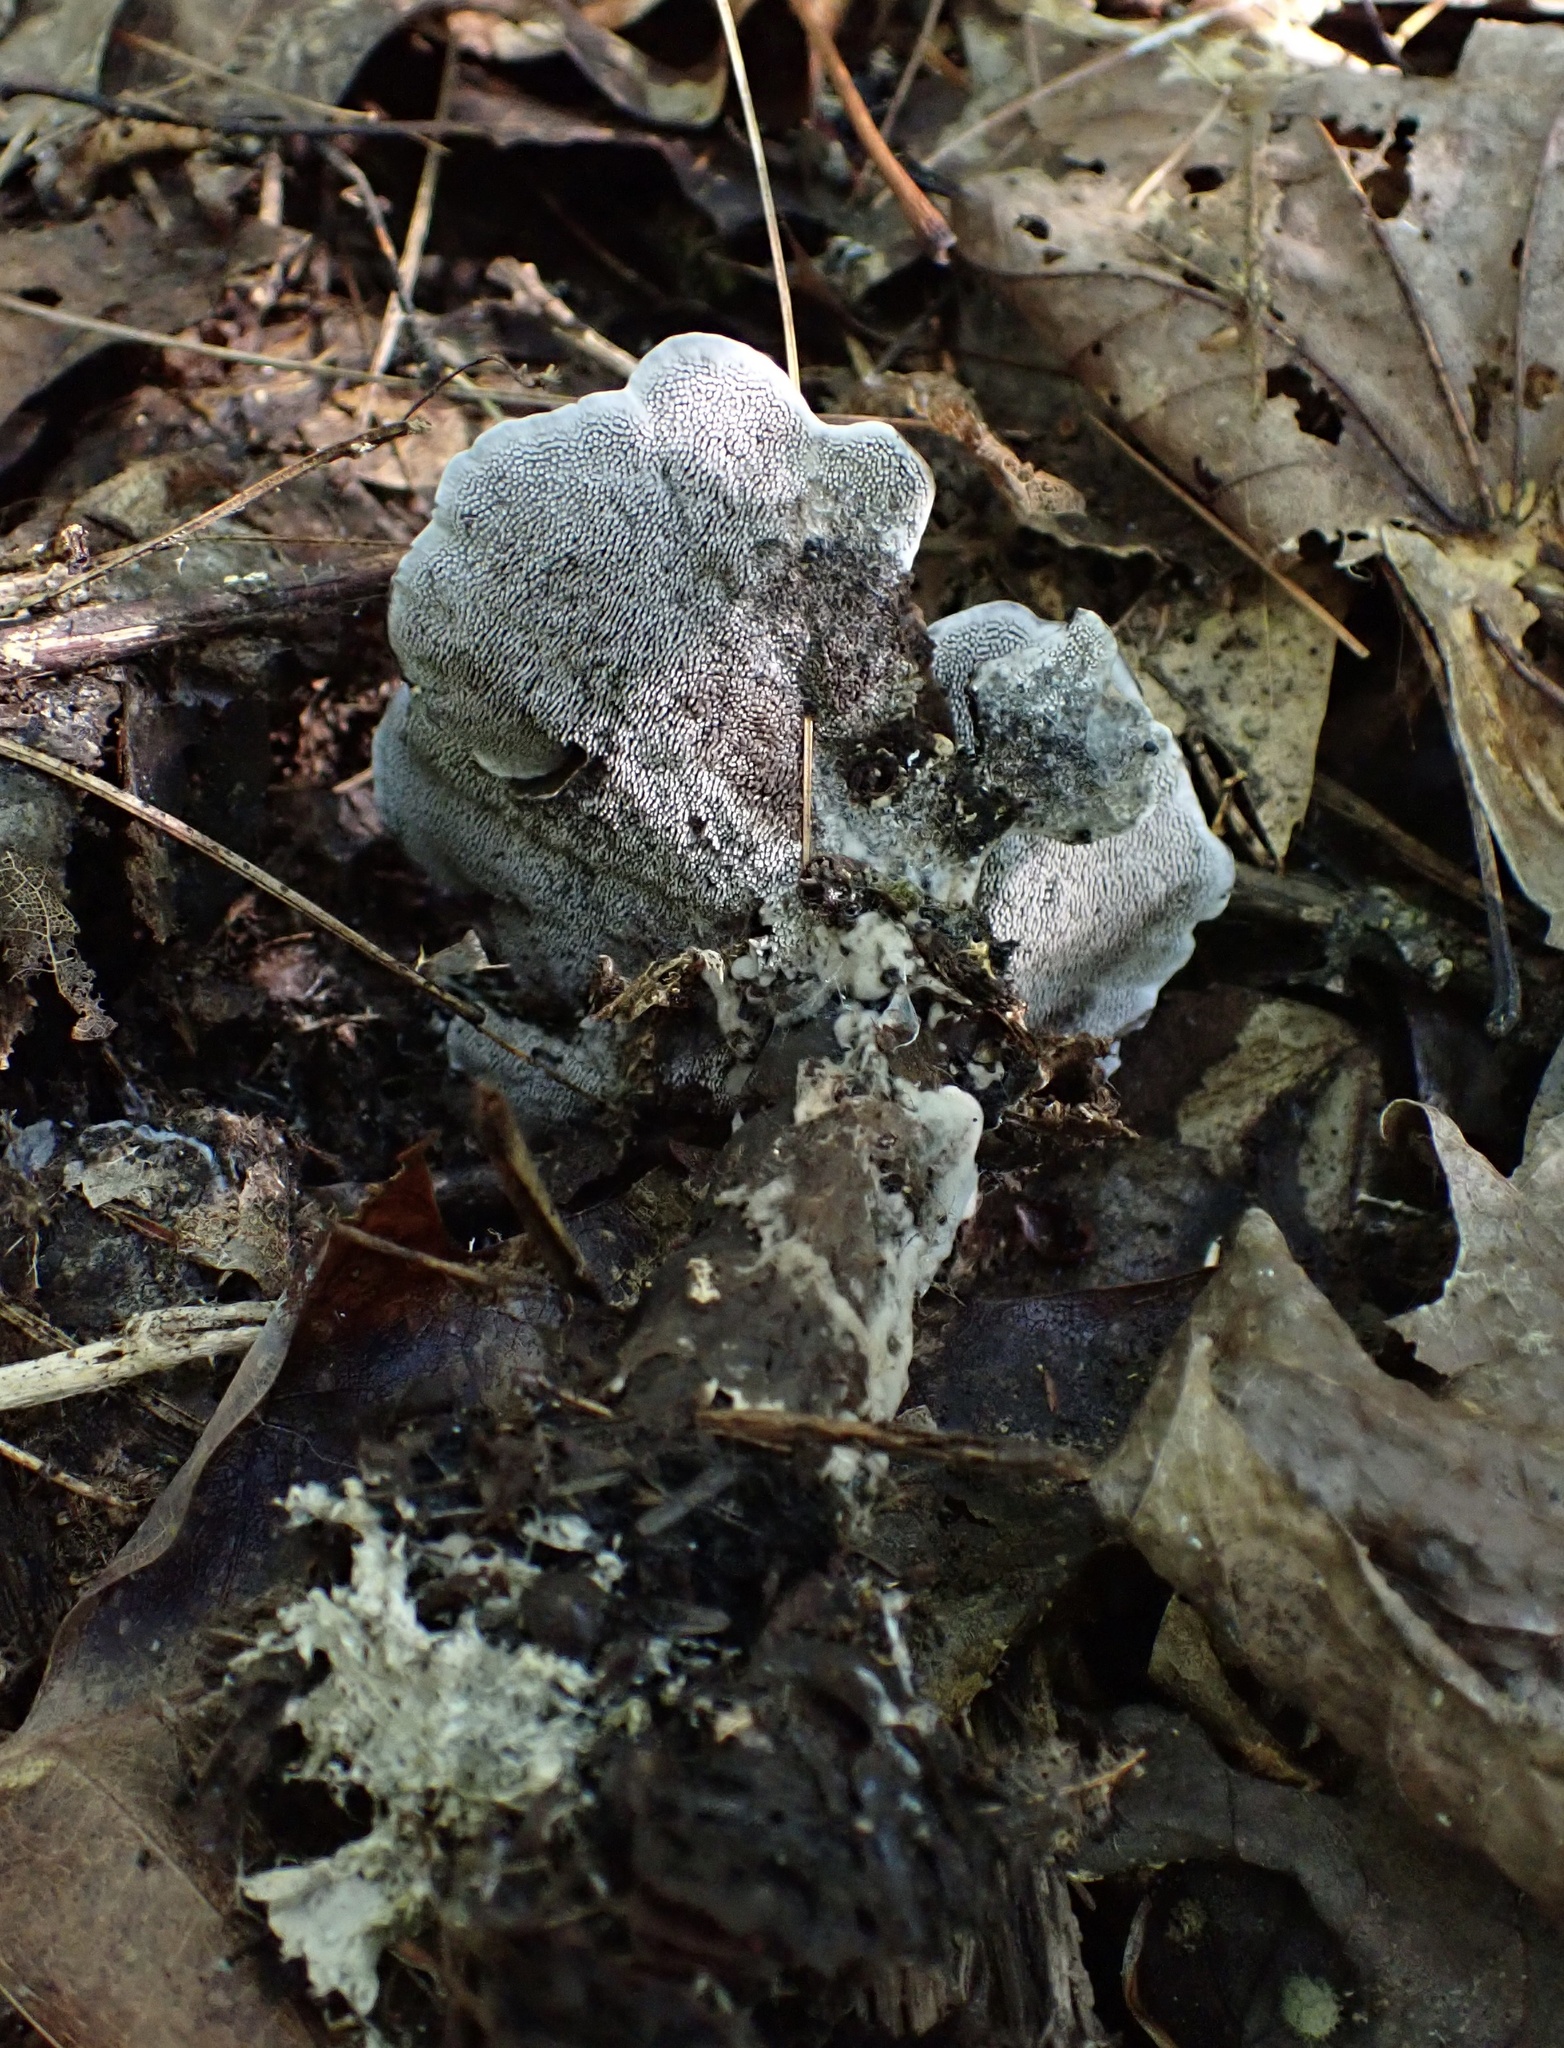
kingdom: Fungi
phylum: Basidiomycota
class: Agaricomycetes
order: Thelephorales
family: Thelephoraceae
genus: Phellodon
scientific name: Phellodon niger
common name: Black tooth
